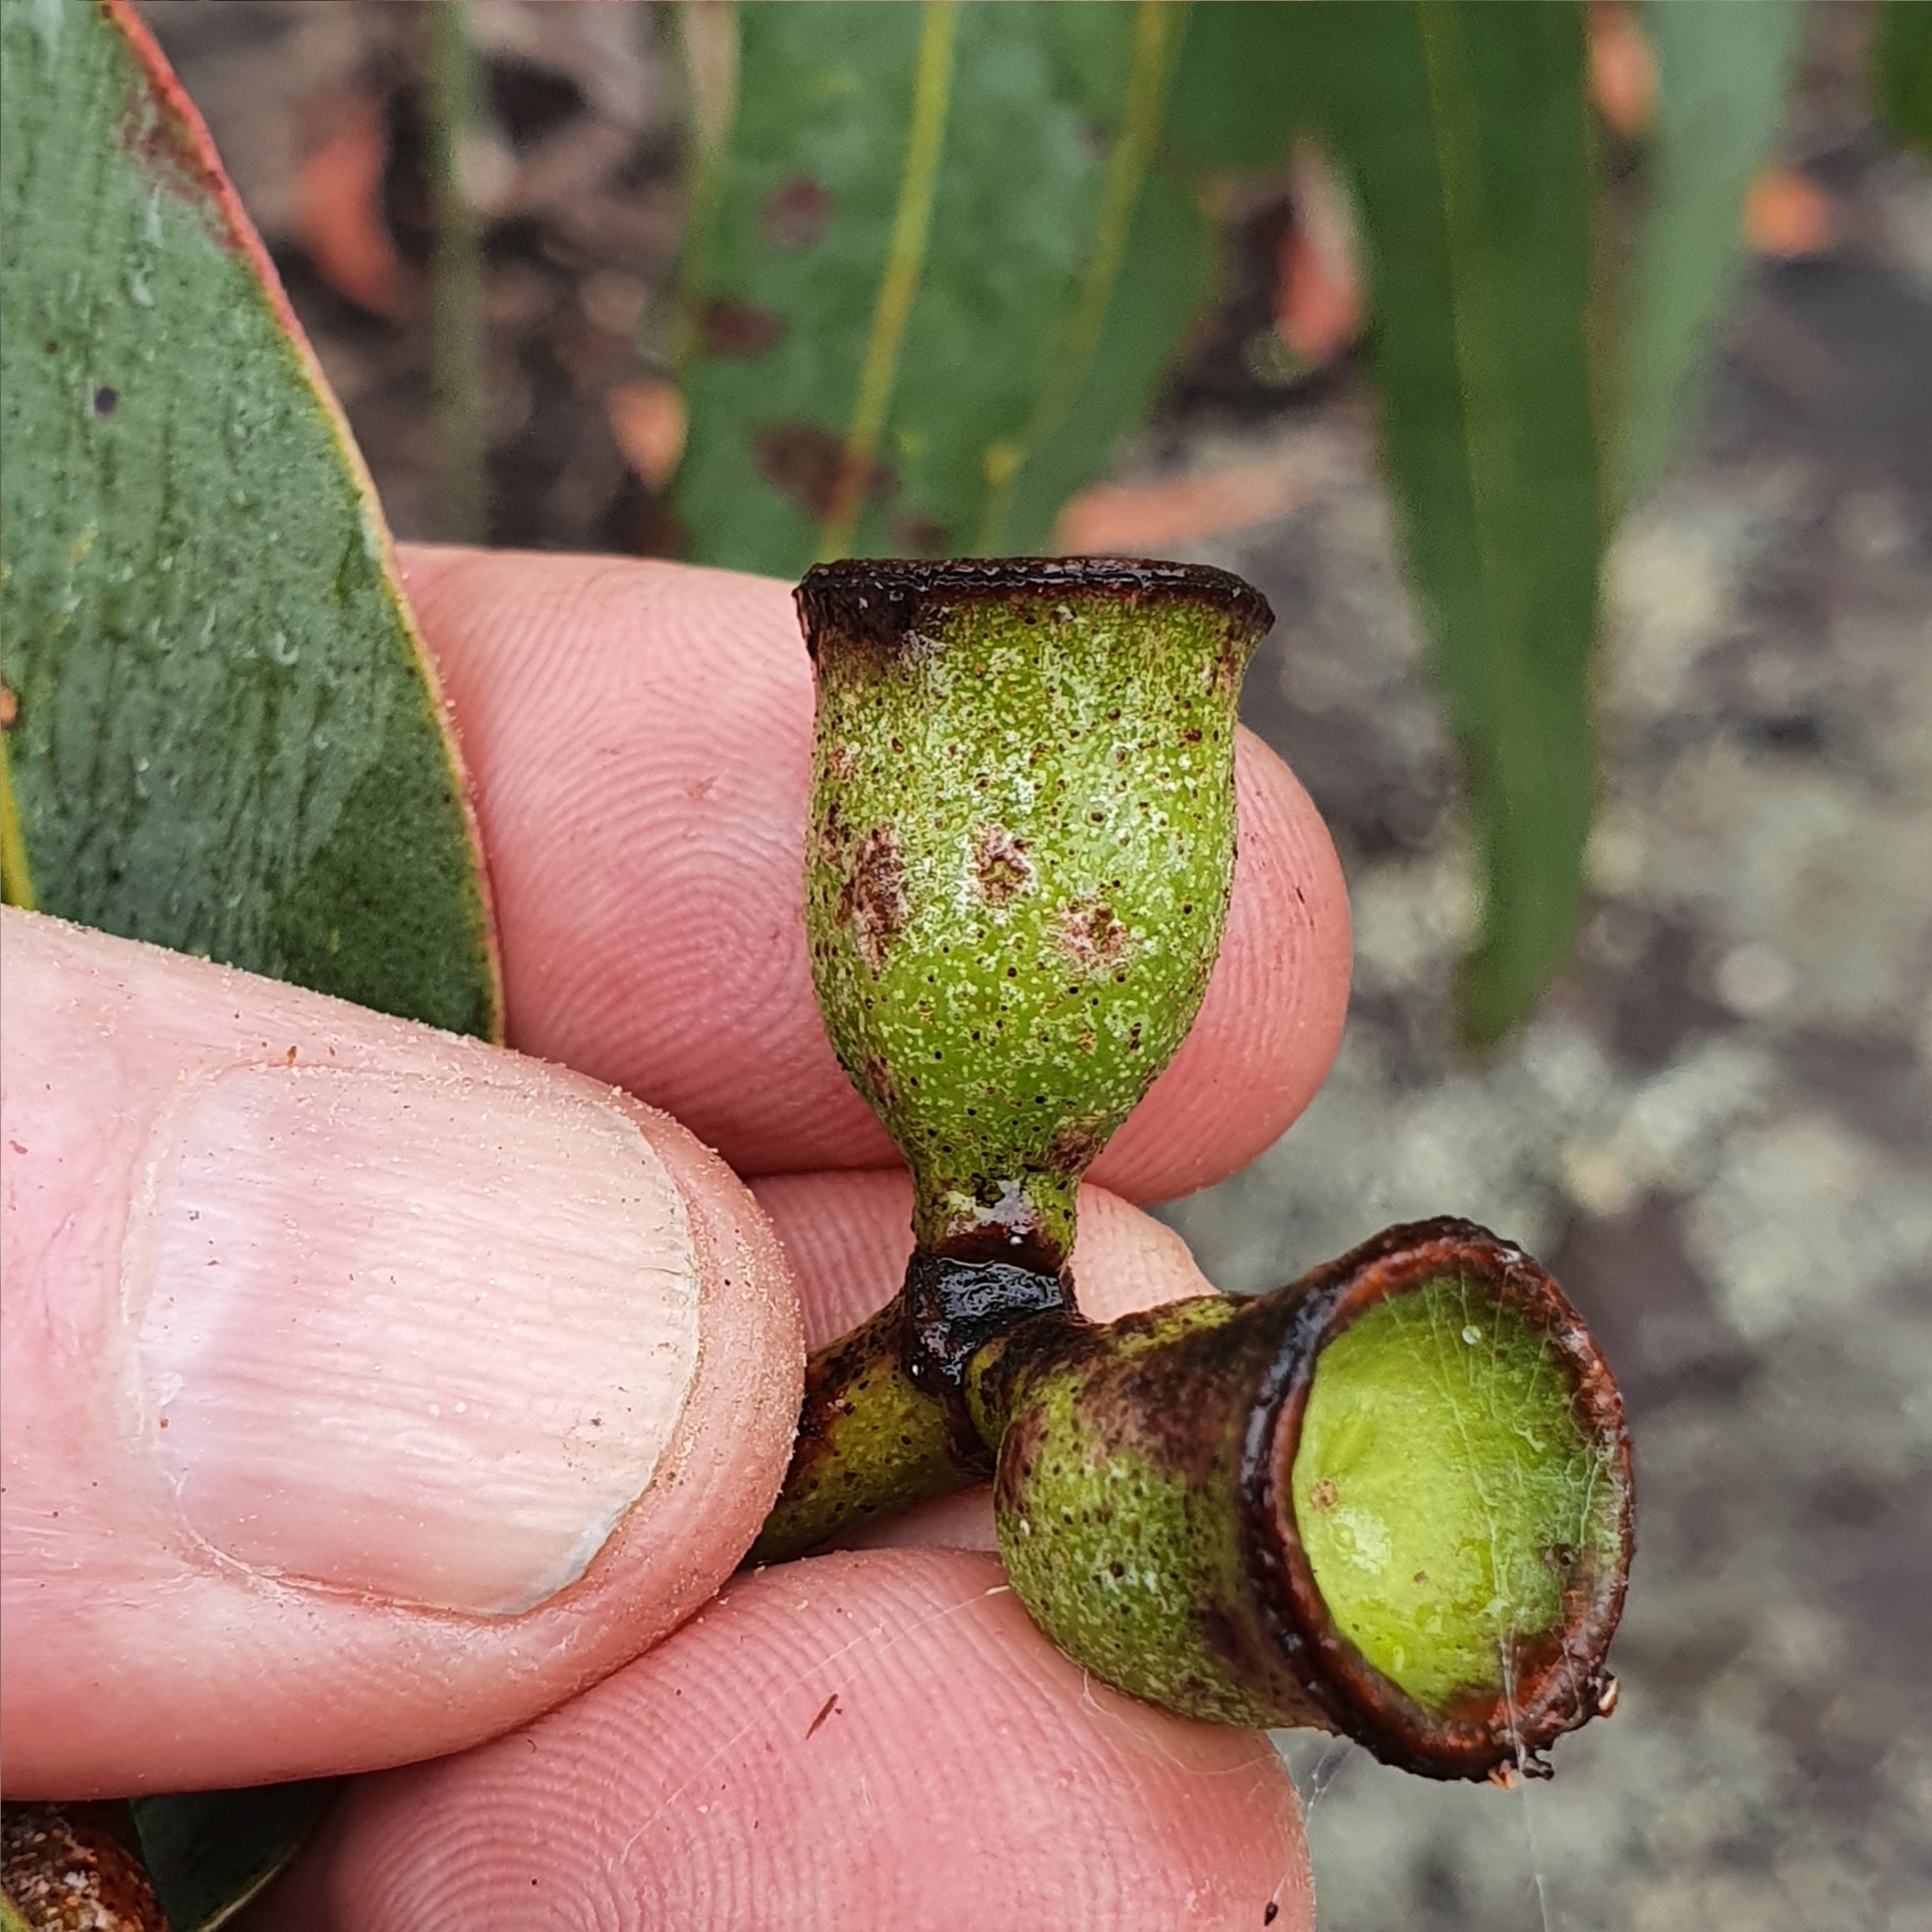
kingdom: Plantae
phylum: Tracheophyta
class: Magnoliopsida
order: Myrtales
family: Myrtaceae
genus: Corymbia
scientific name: Corymbia eximia
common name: Yellow bloodwood
